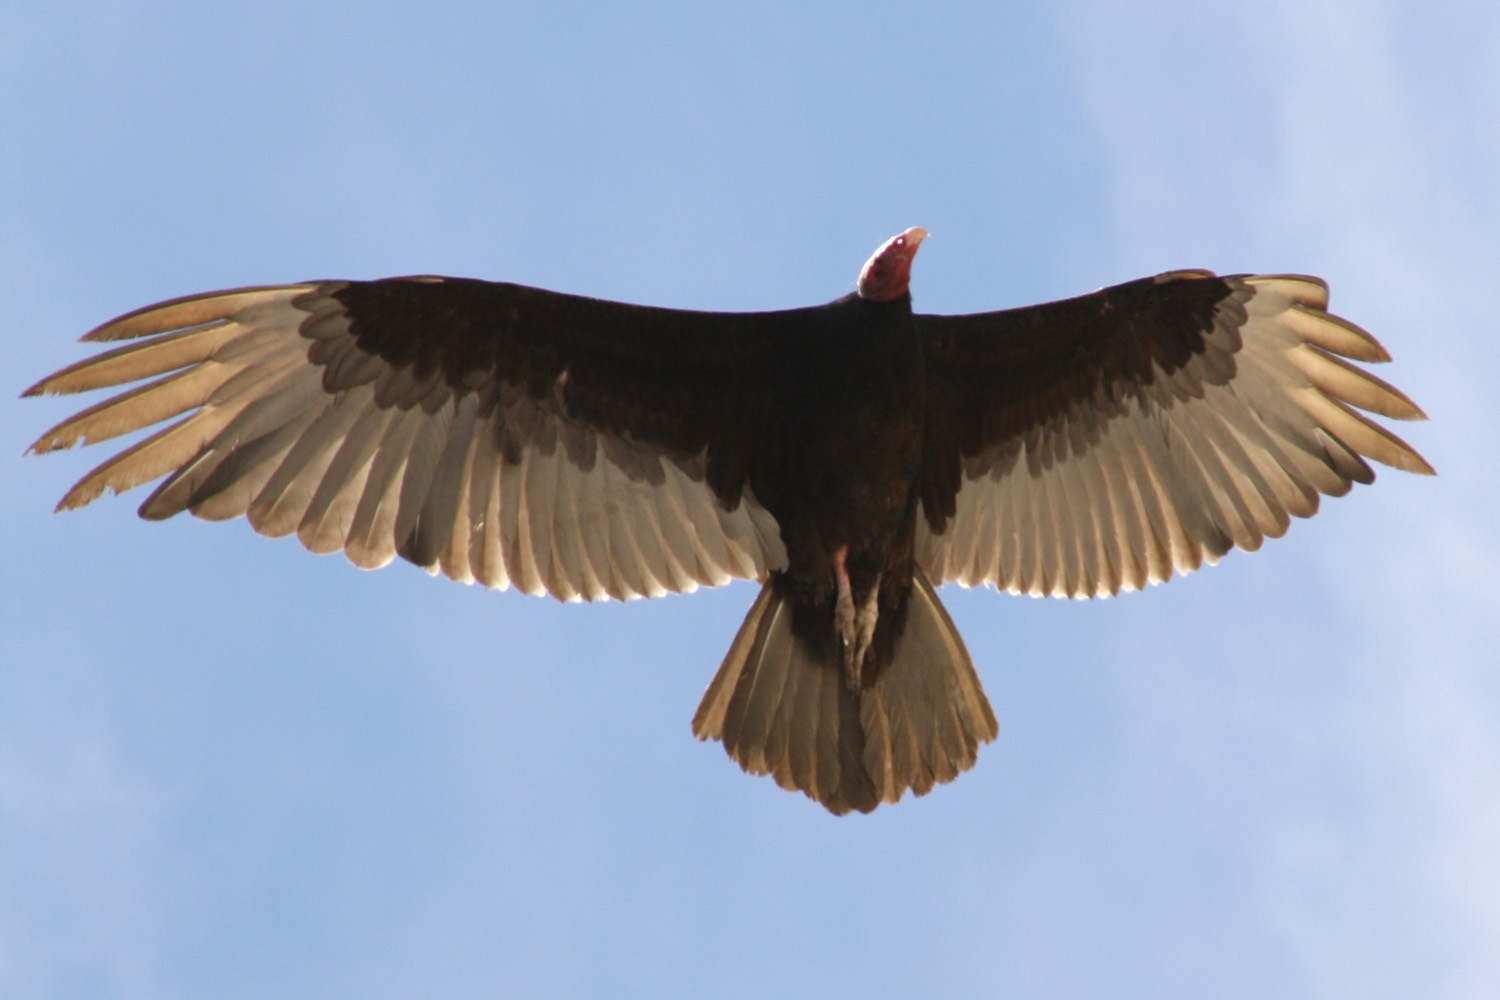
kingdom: Animalia
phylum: Chordata
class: Aves
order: Accipitriformes
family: Cathartidae
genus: Cathartes
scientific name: Cathartes aura
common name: Turkey vulture
